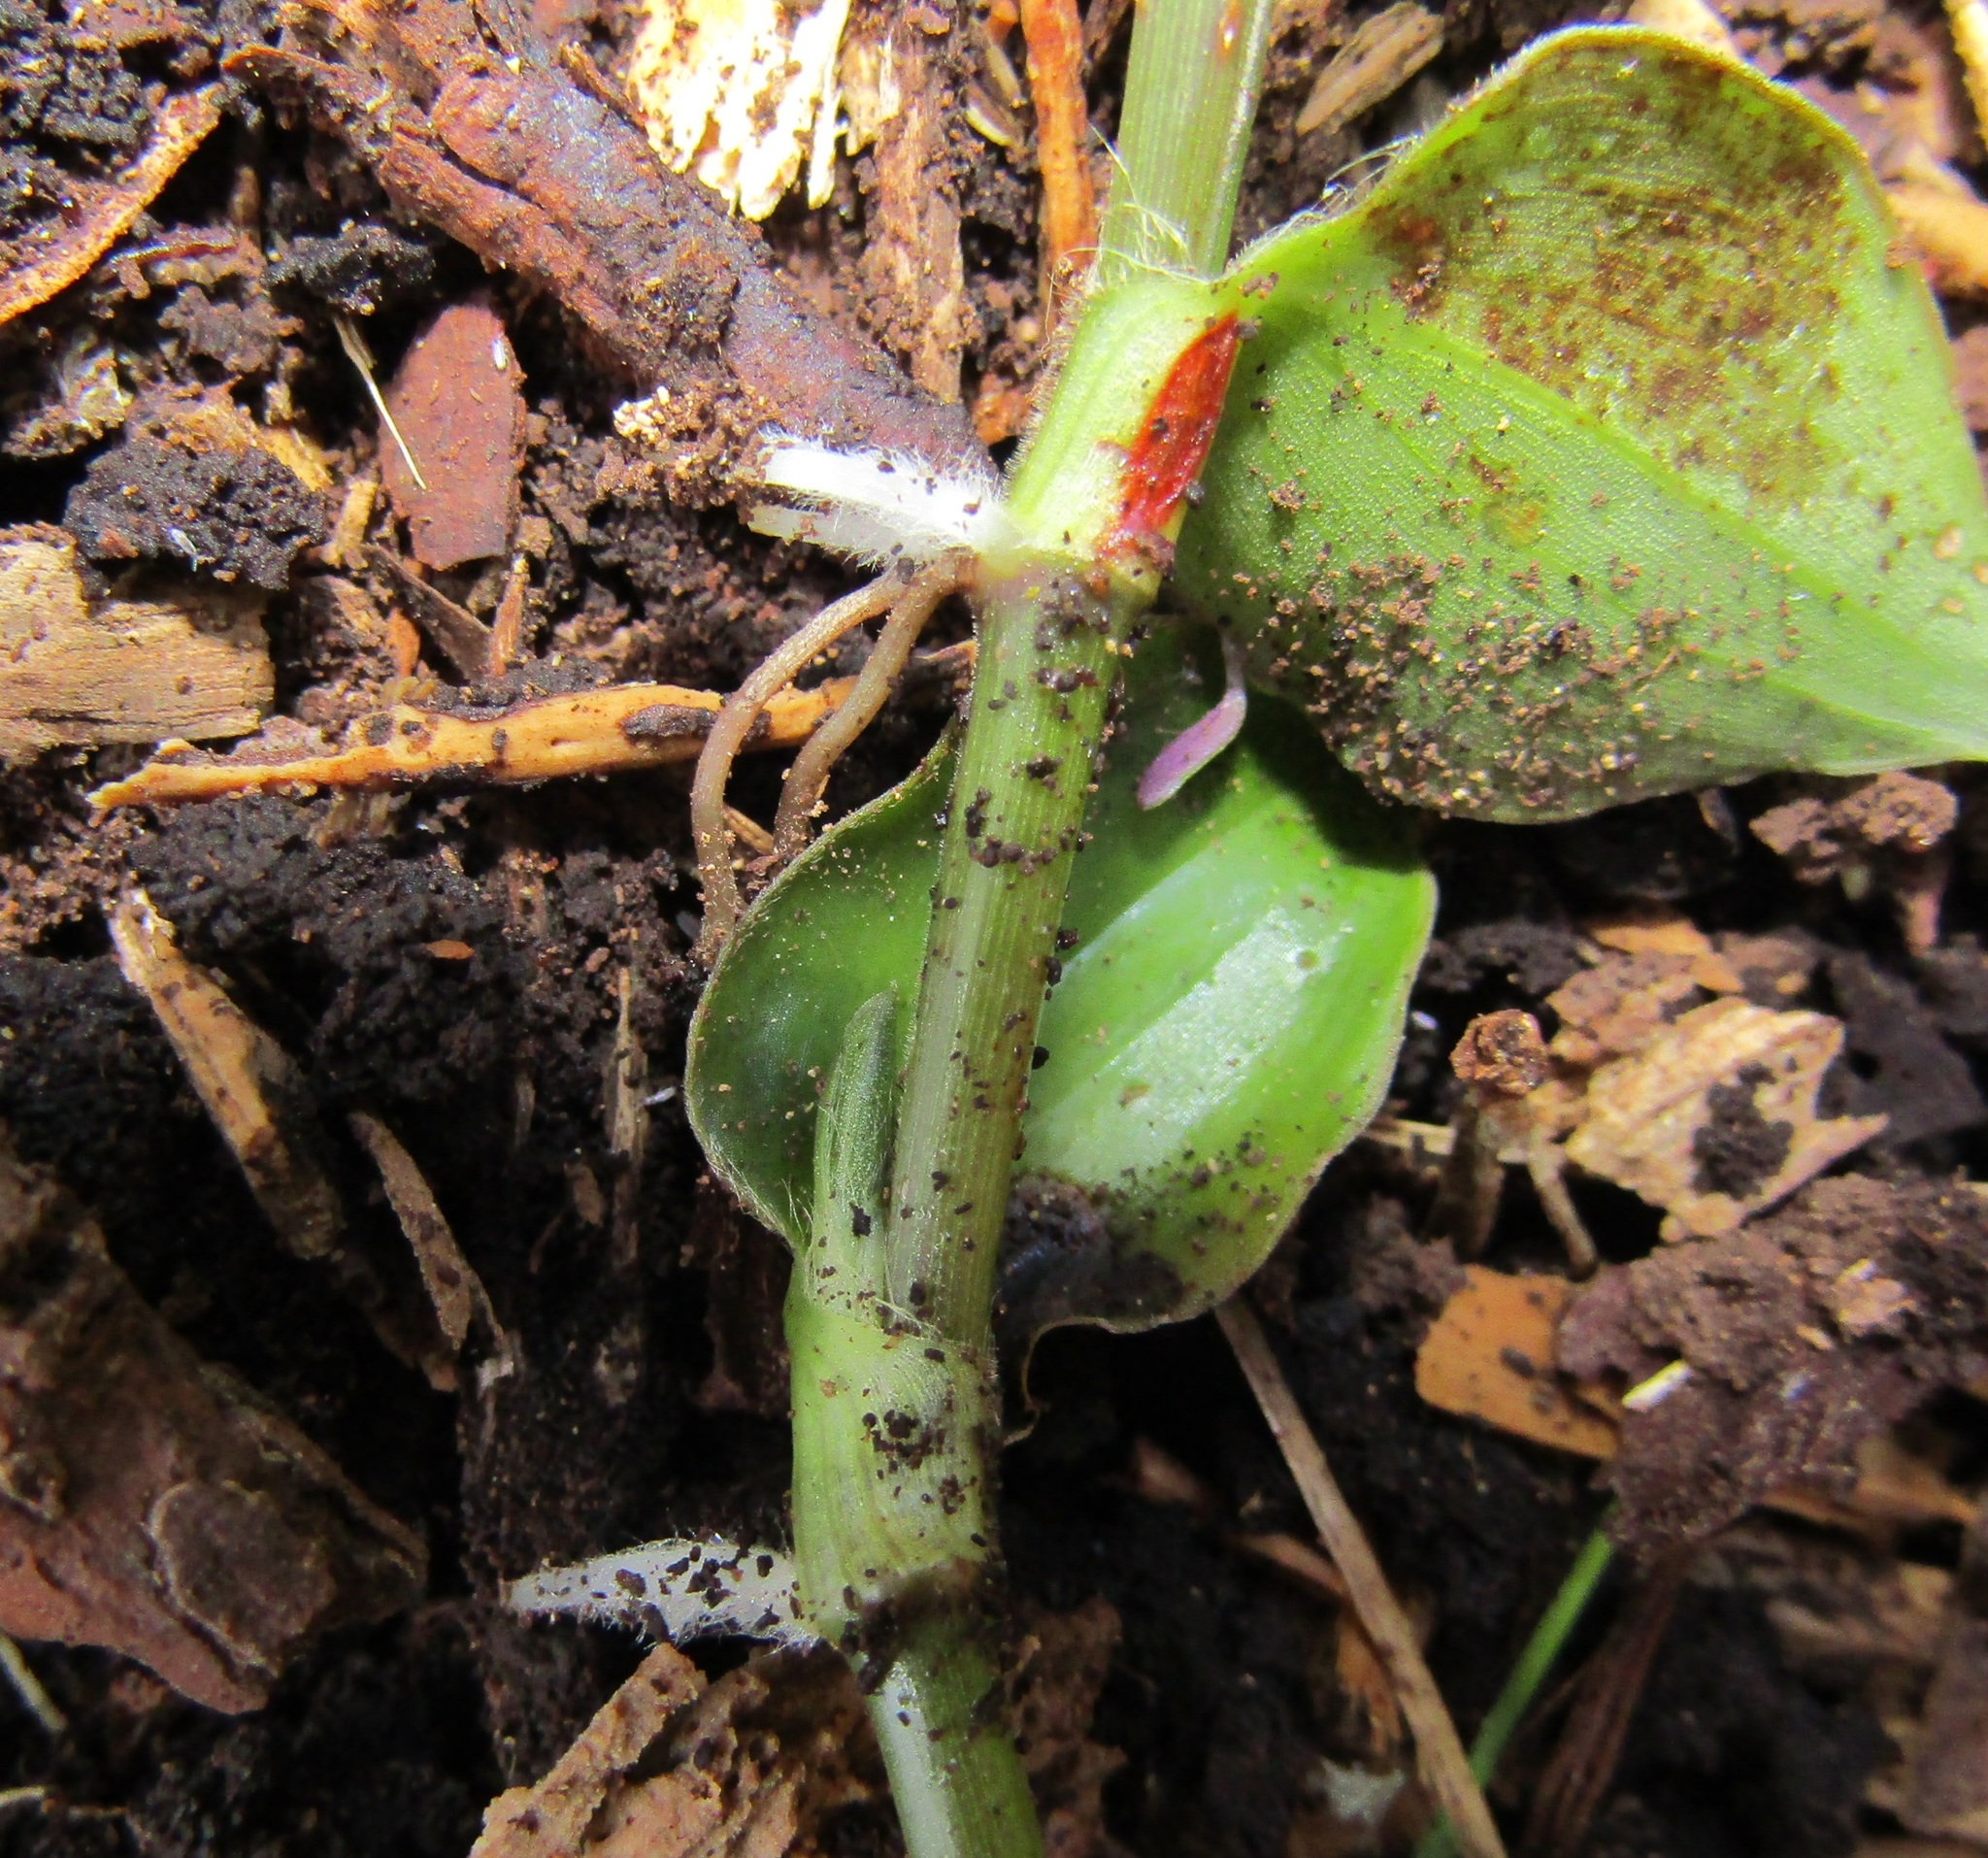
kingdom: Plantae
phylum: Tracheophyta
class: Liliopsida
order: Commelinales
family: Commelinaceae
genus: Tradescantia
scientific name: Tradescantia fluminensis
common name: Wandering-jew
